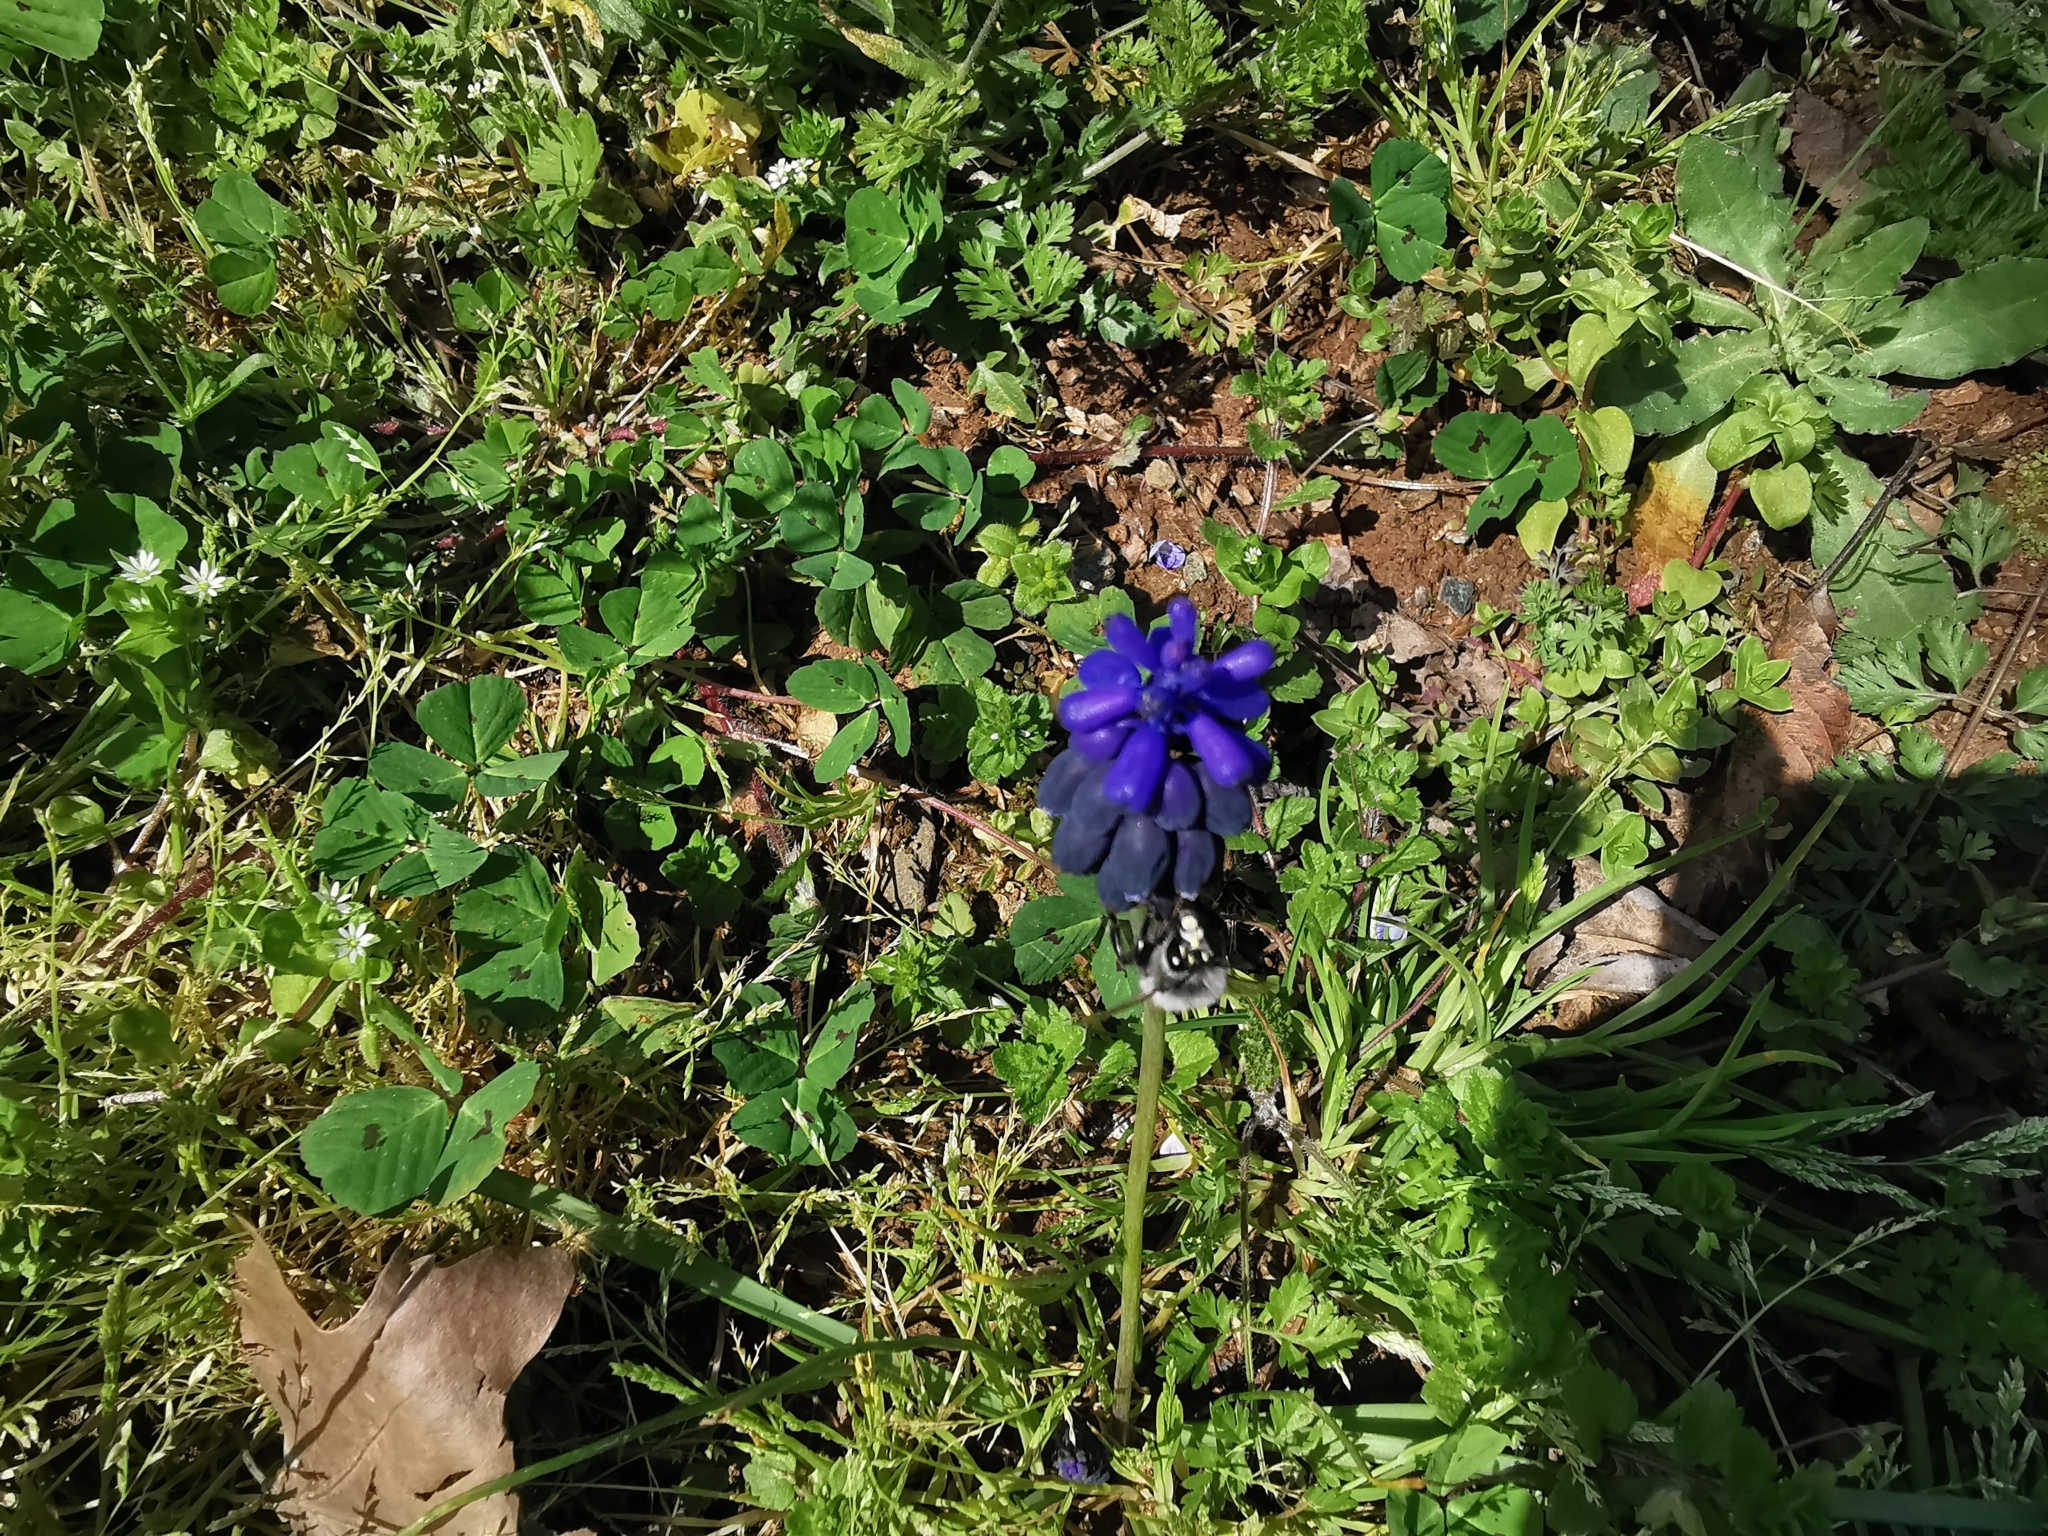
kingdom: Plantae
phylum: Tracheophyta
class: Liliopsida
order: Asparagales
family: Asparagaceae
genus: Muscari
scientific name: Muscari pulchellum
